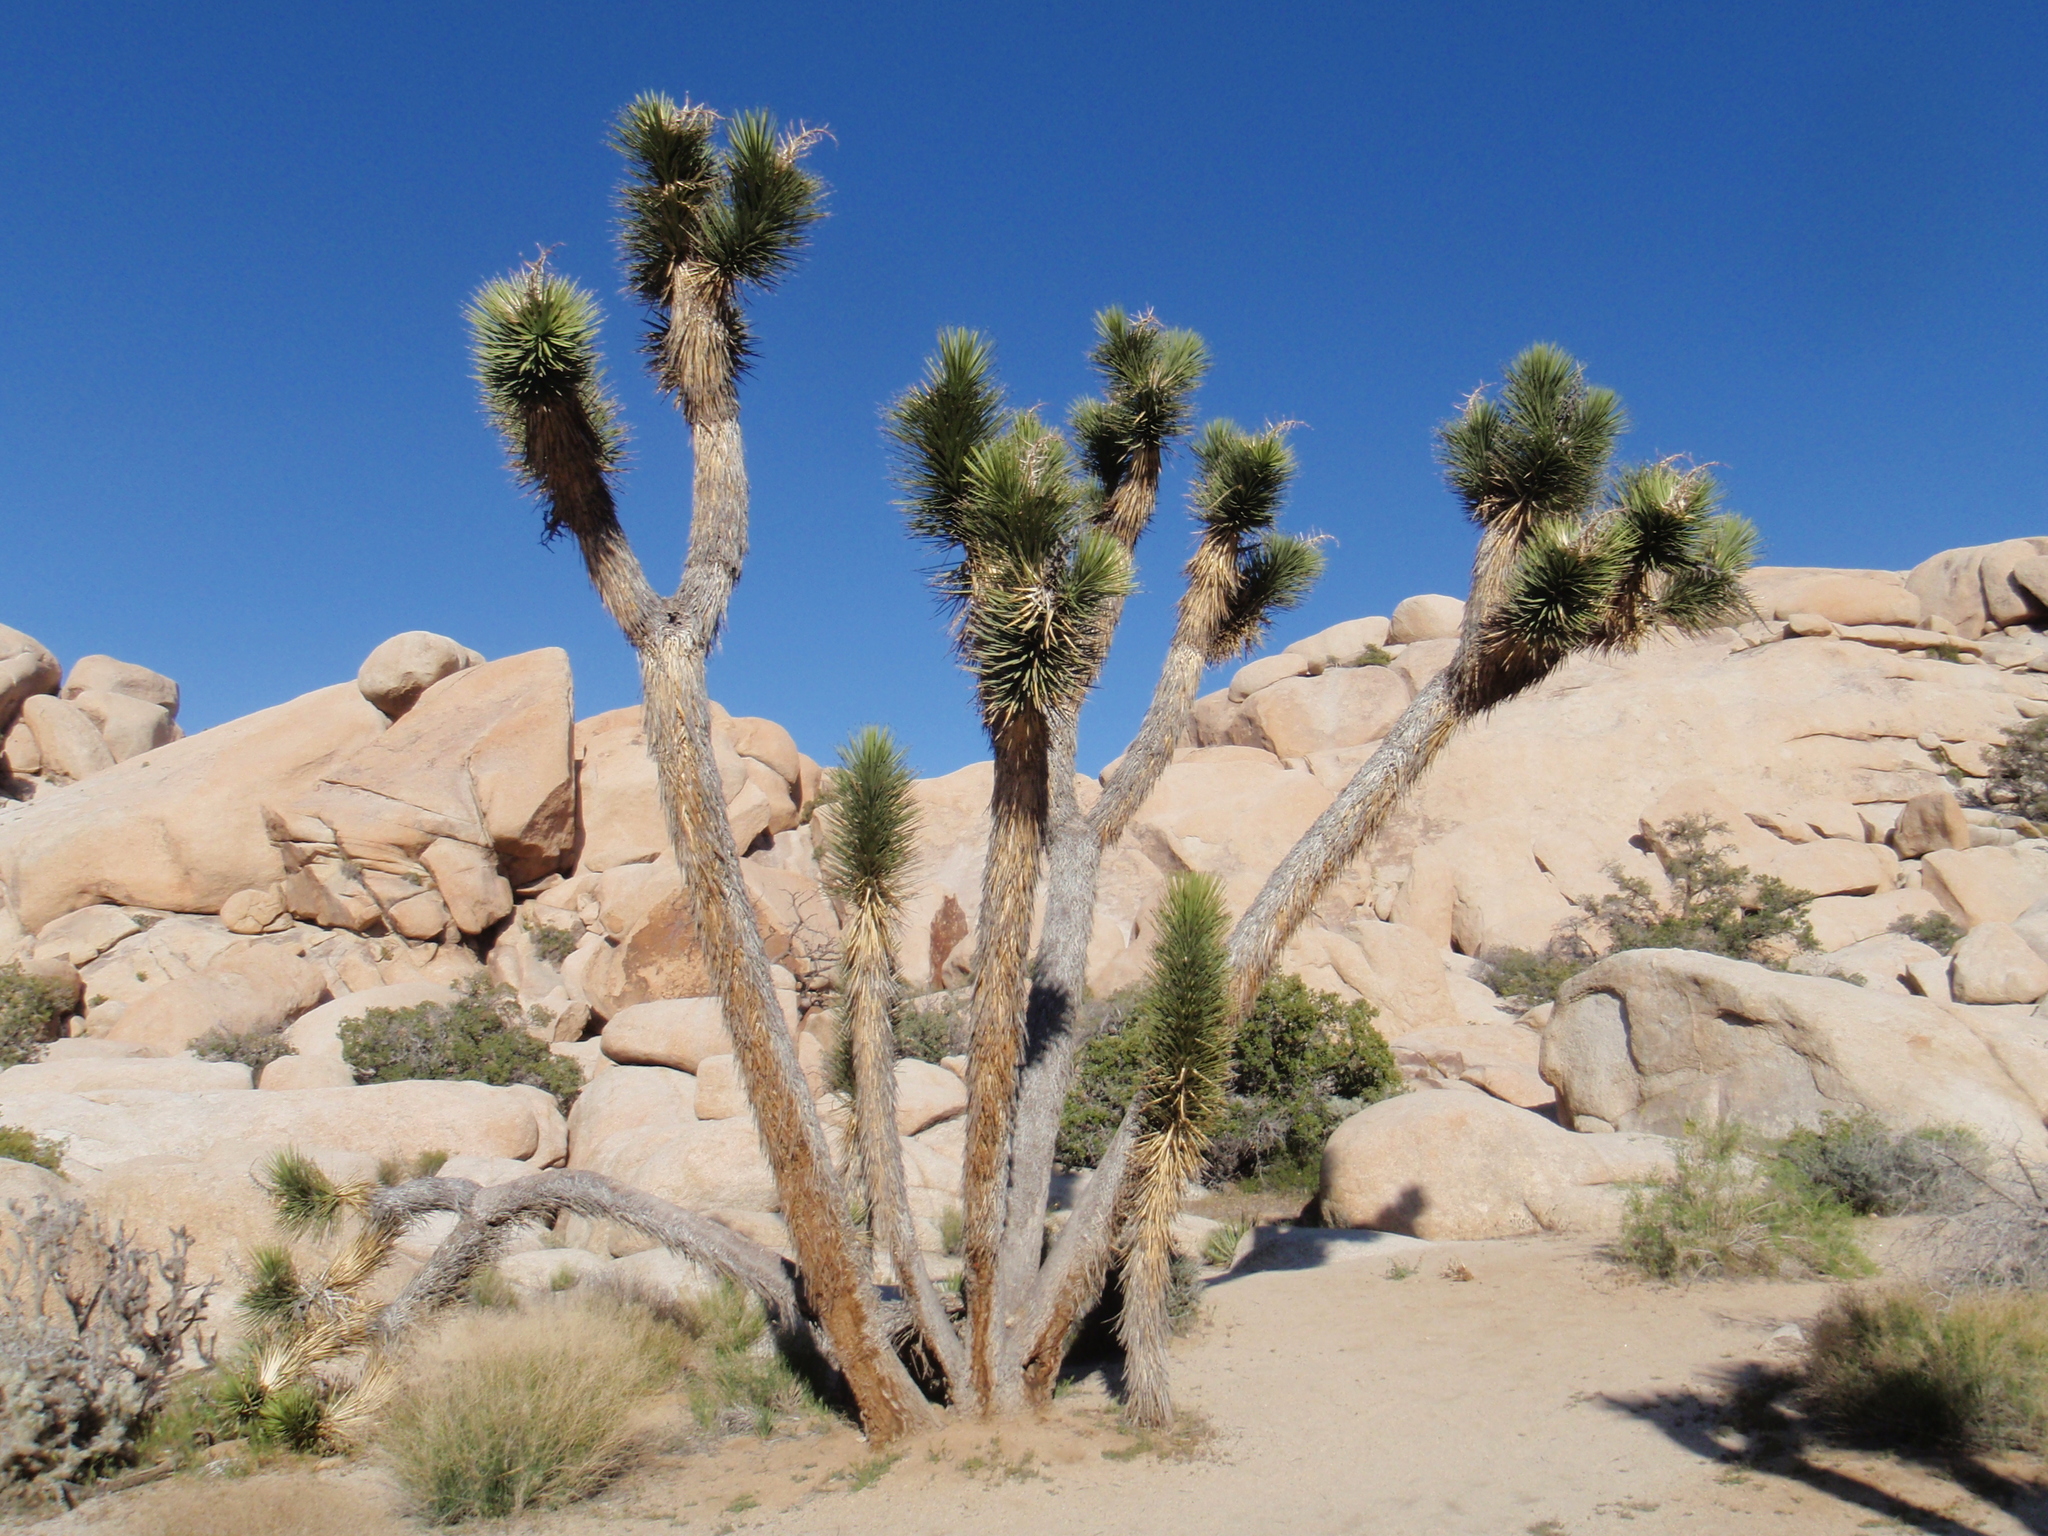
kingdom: Plantae
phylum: Tracheophyta
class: Liliopsida
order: Asparagales
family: Asparagaceae
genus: Yucca
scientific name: Yucca brevifolia
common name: Joshua tree
